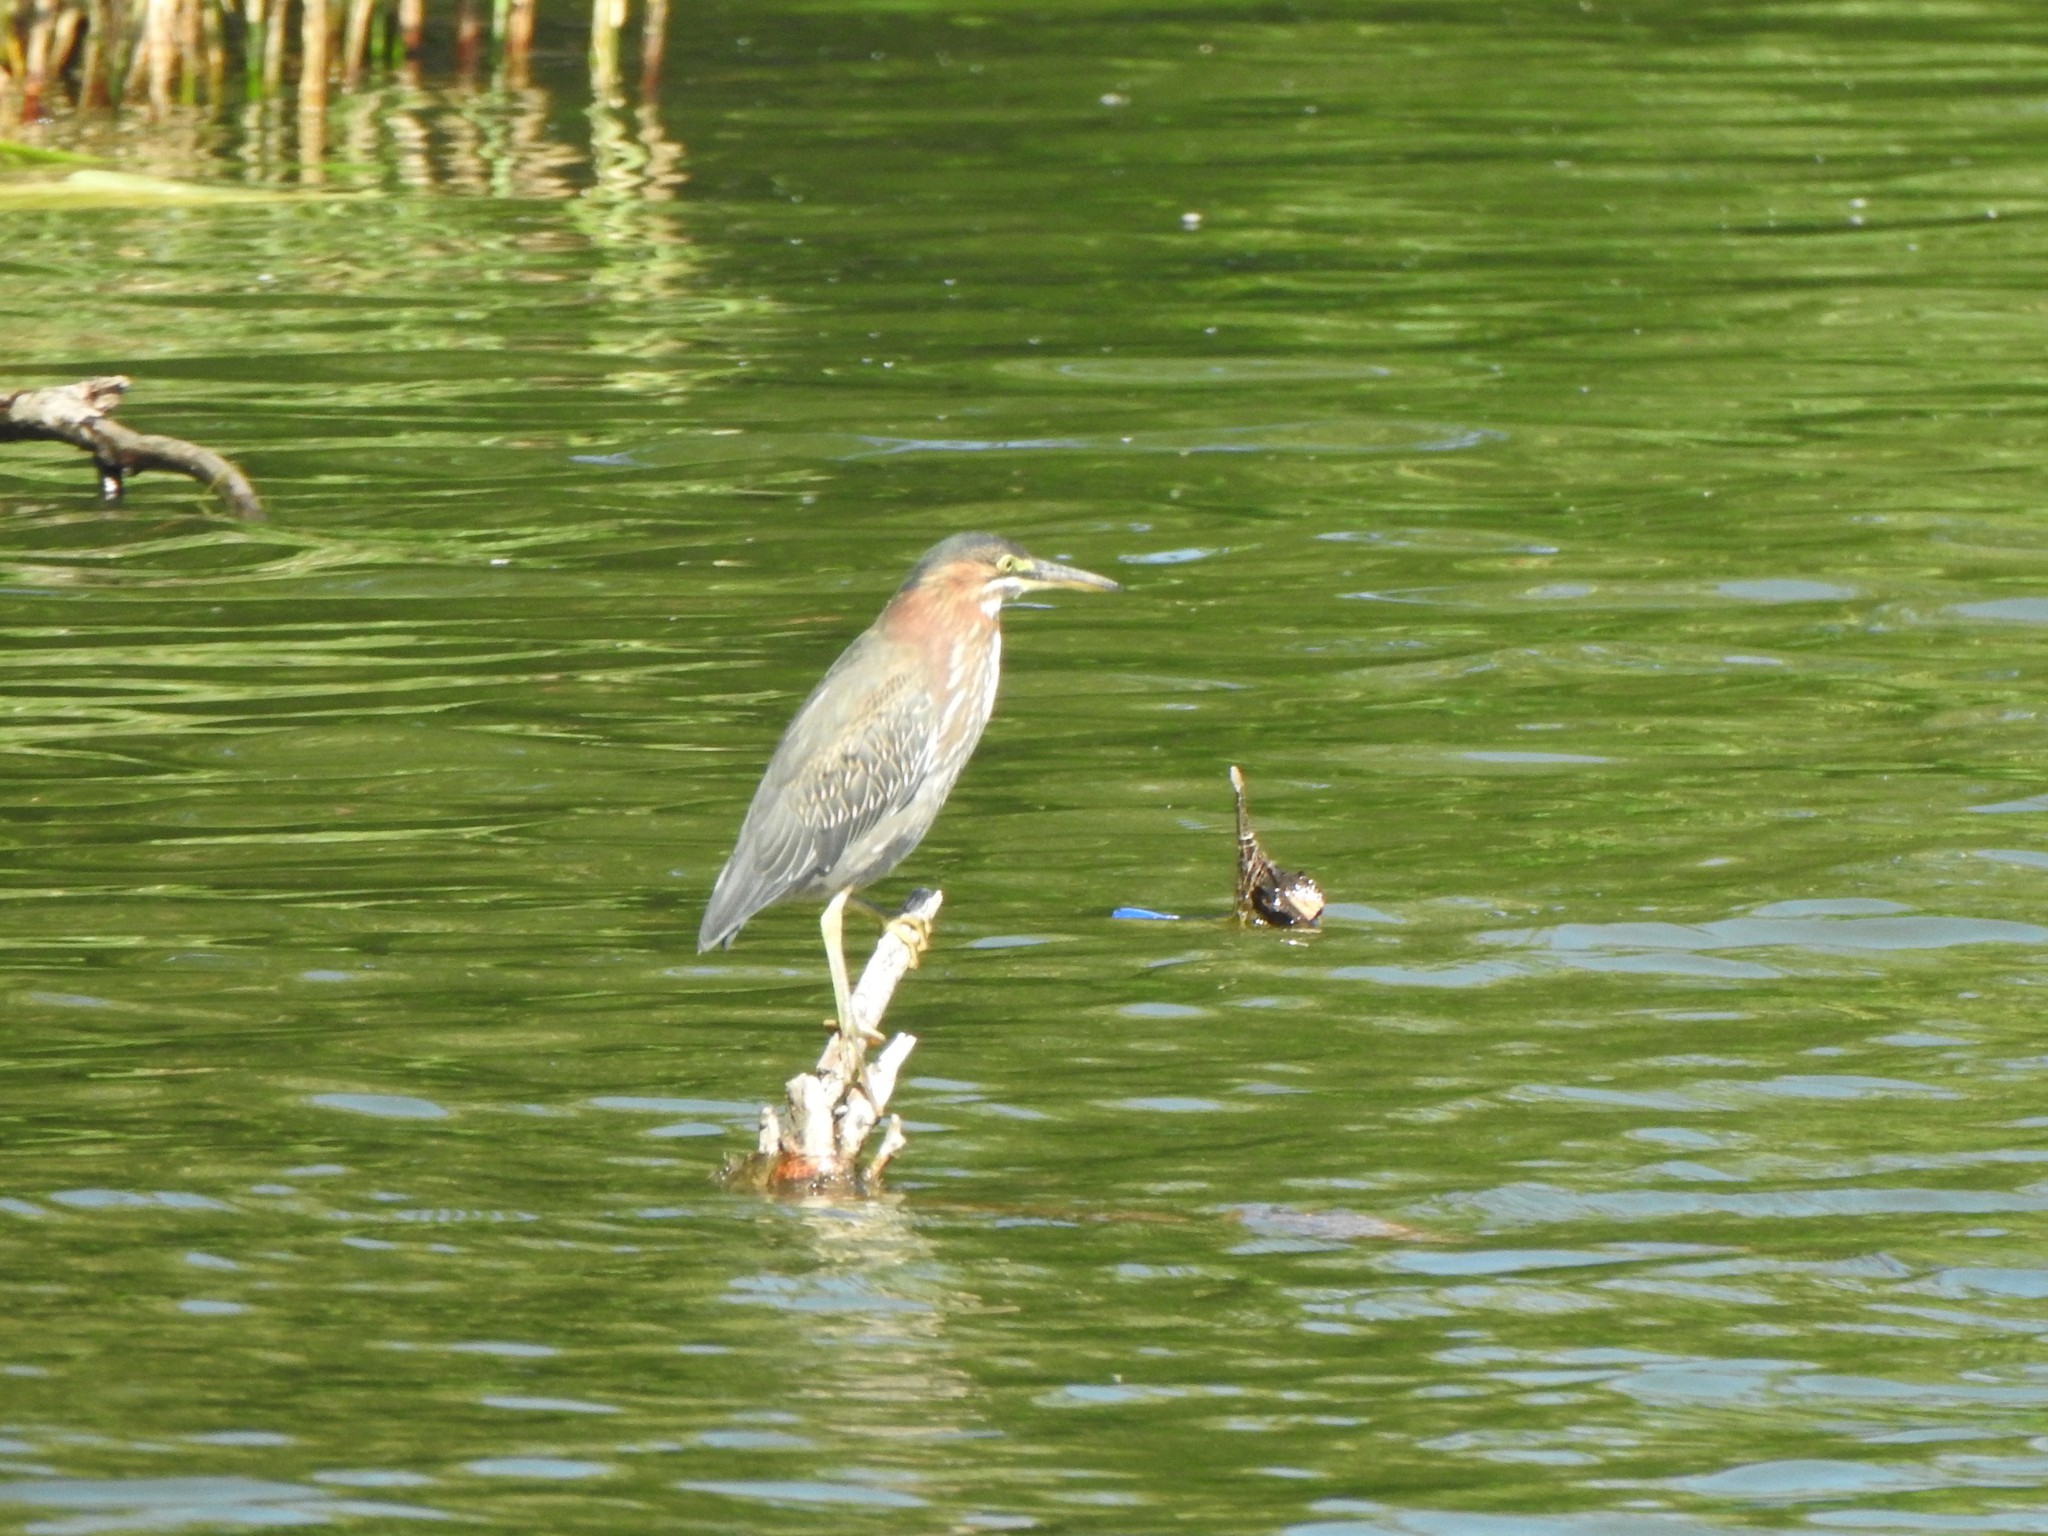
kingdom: Animalia
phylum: Chordata
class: Aves
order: Pelecaniformes
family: Ardeidae
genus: Butorides
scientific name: Butorides virescens
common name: Green heron
